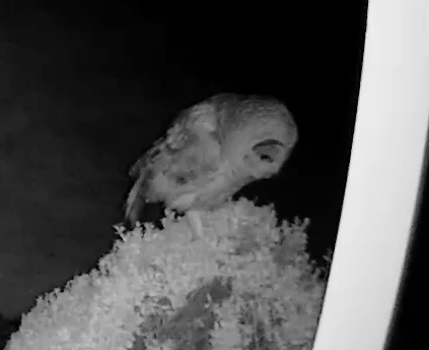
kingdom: Animalia
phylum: Chordata
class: Aves
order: Strigiformes
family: Strigidae
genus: Strix
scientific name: Strix varia
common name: Barred owl
